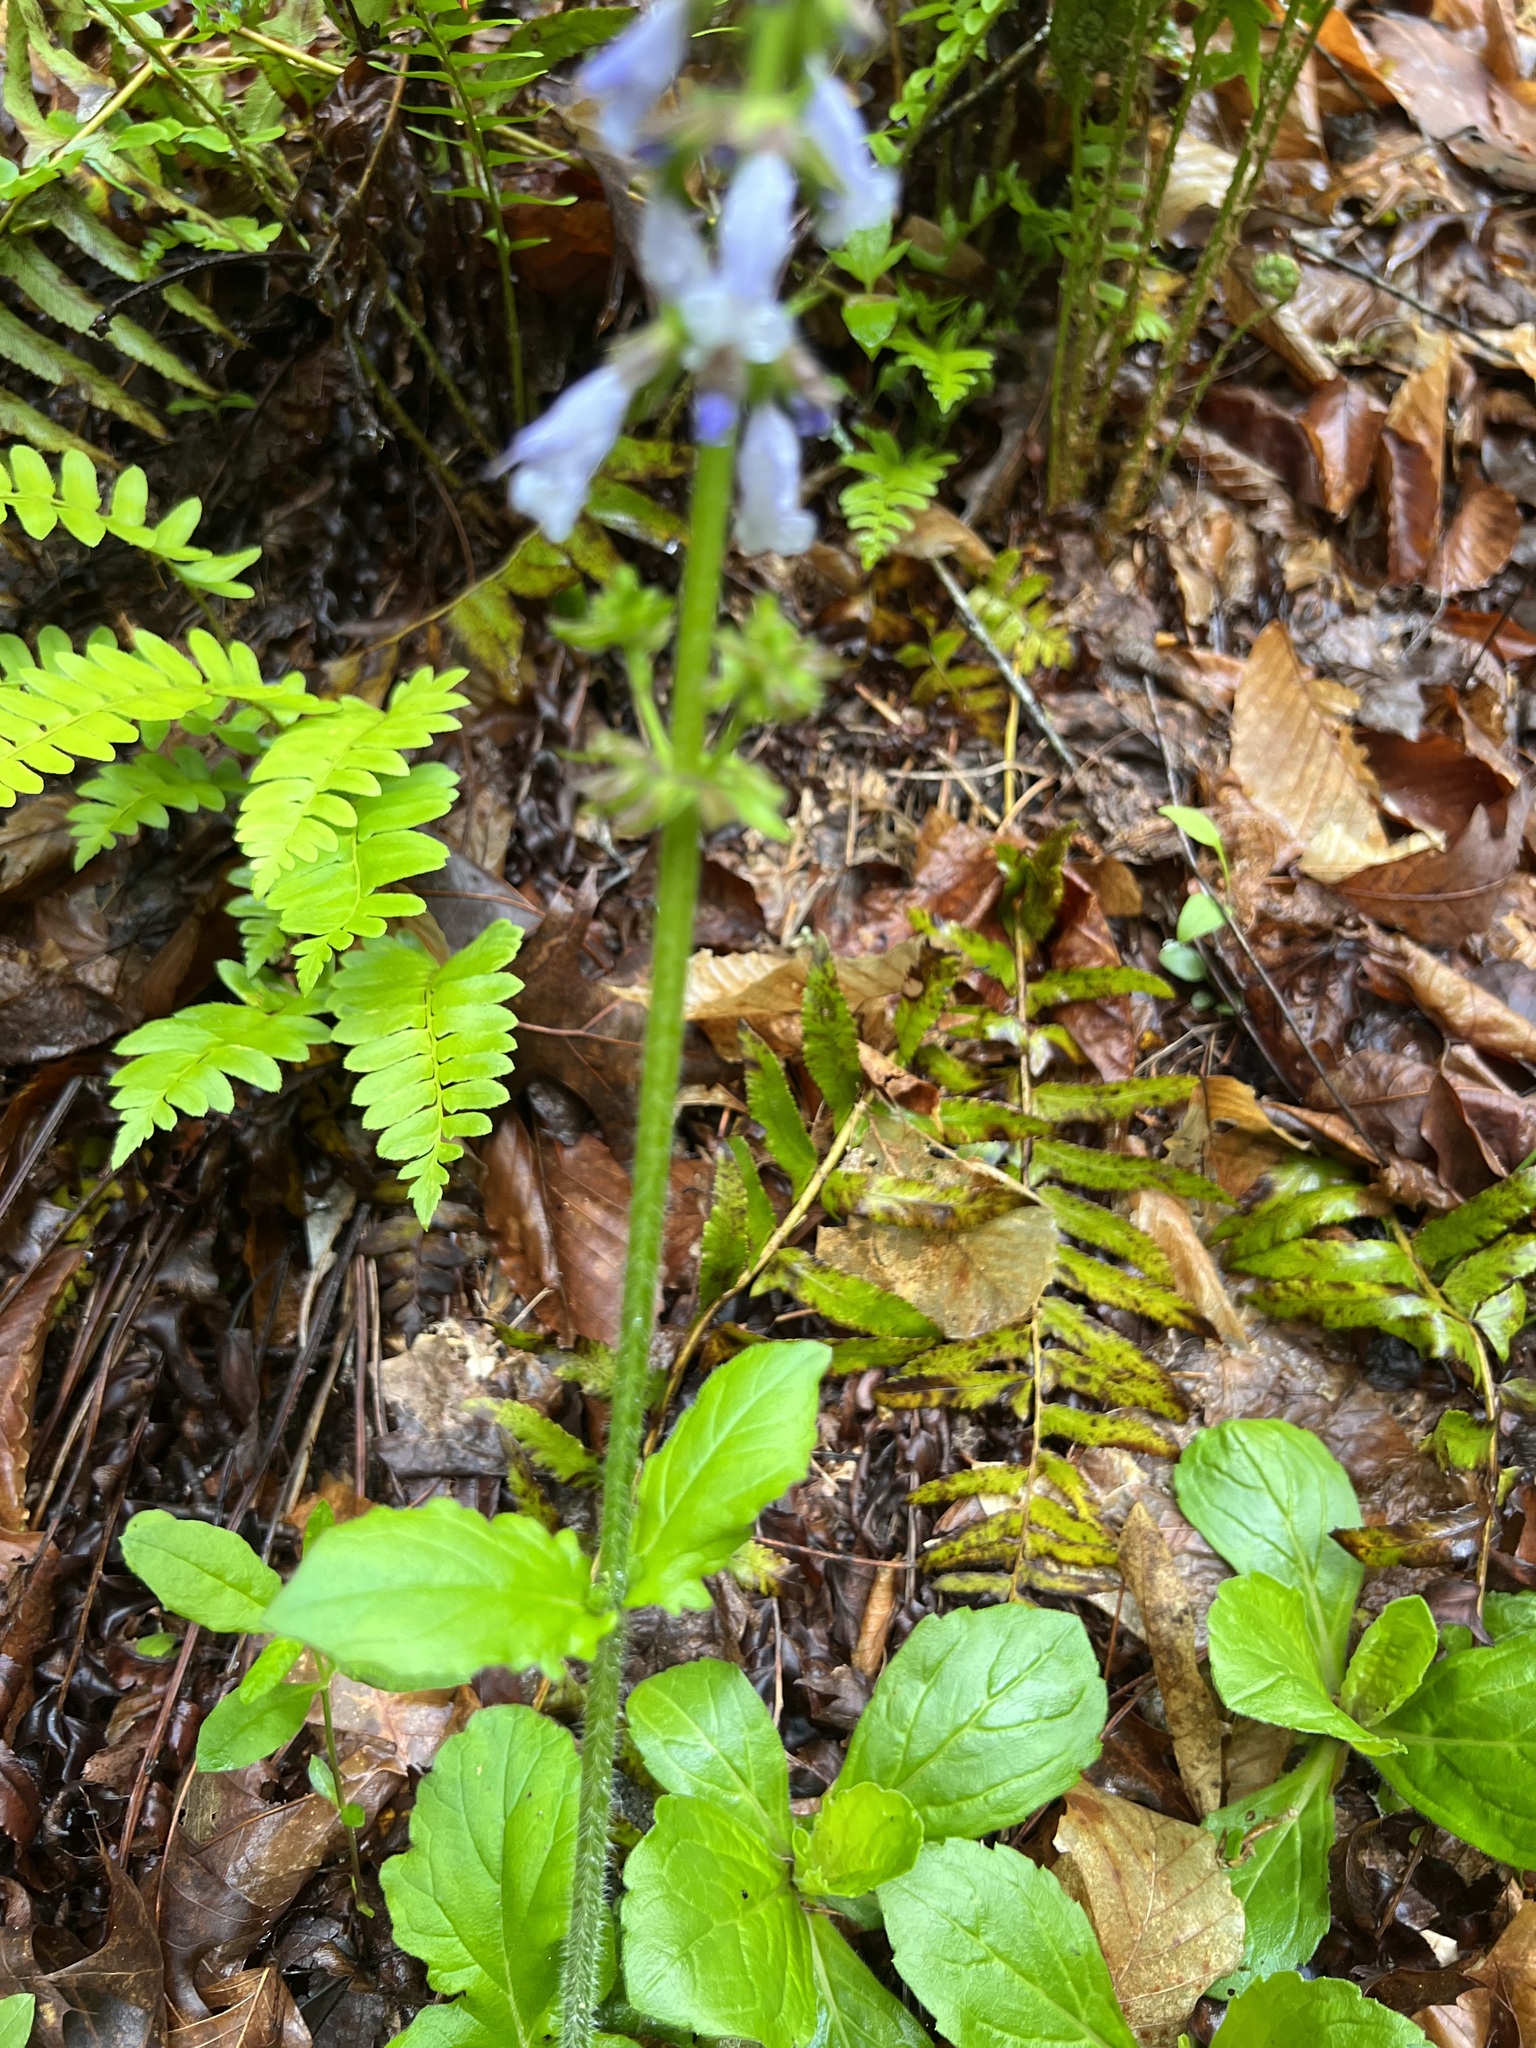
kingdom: Plantae
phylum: Tracheophyta
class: Magnoliopsida
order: Lamiales
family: Lamiaceae
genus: Salvia
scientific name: Salvia lyrata
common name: Cancerweed
